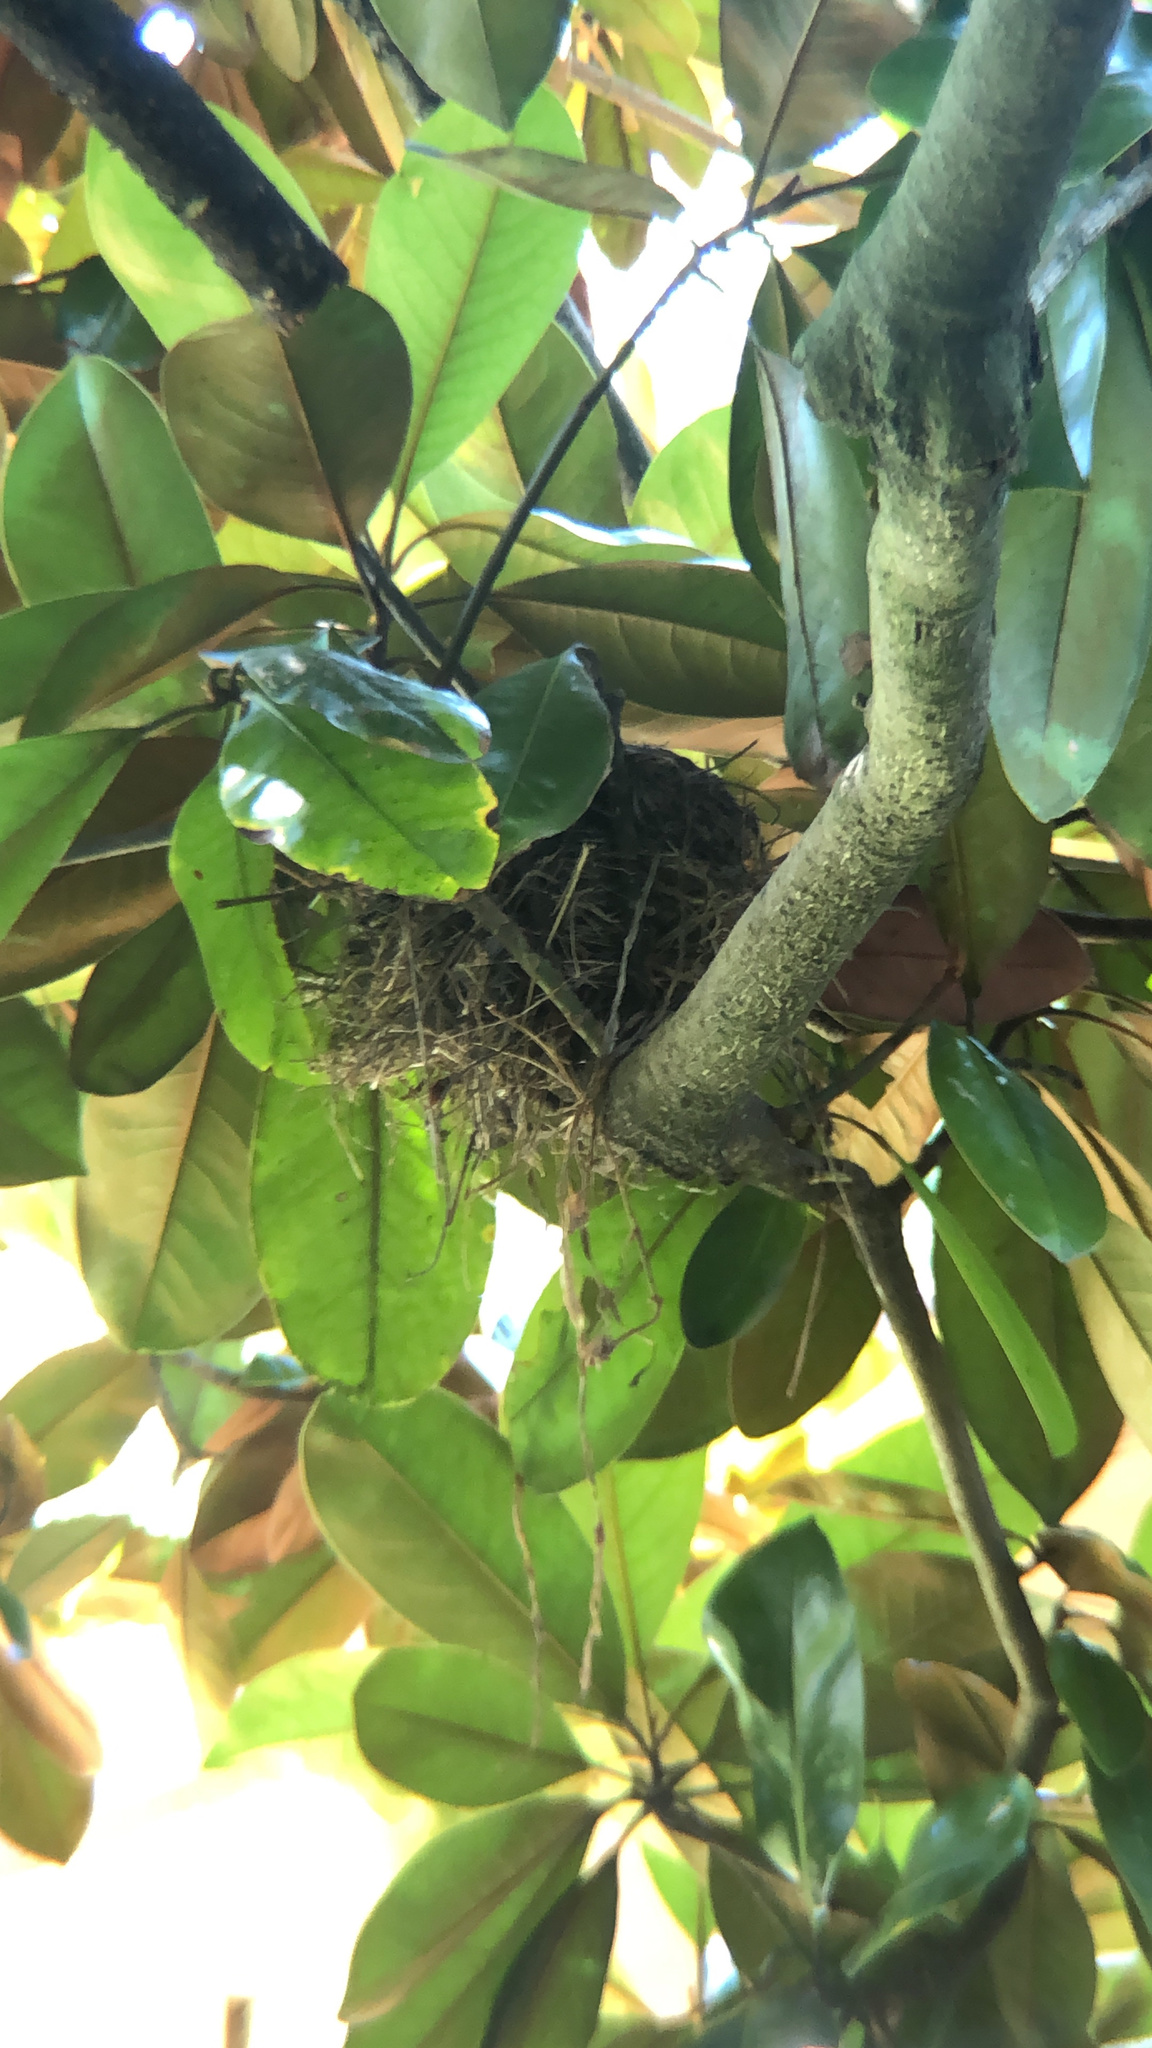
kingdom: Animalia
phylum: Chordata
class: Aves
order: Passeriformes
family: Turdidae
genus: Turdus
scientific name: Turdus migratorius
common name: American robin
